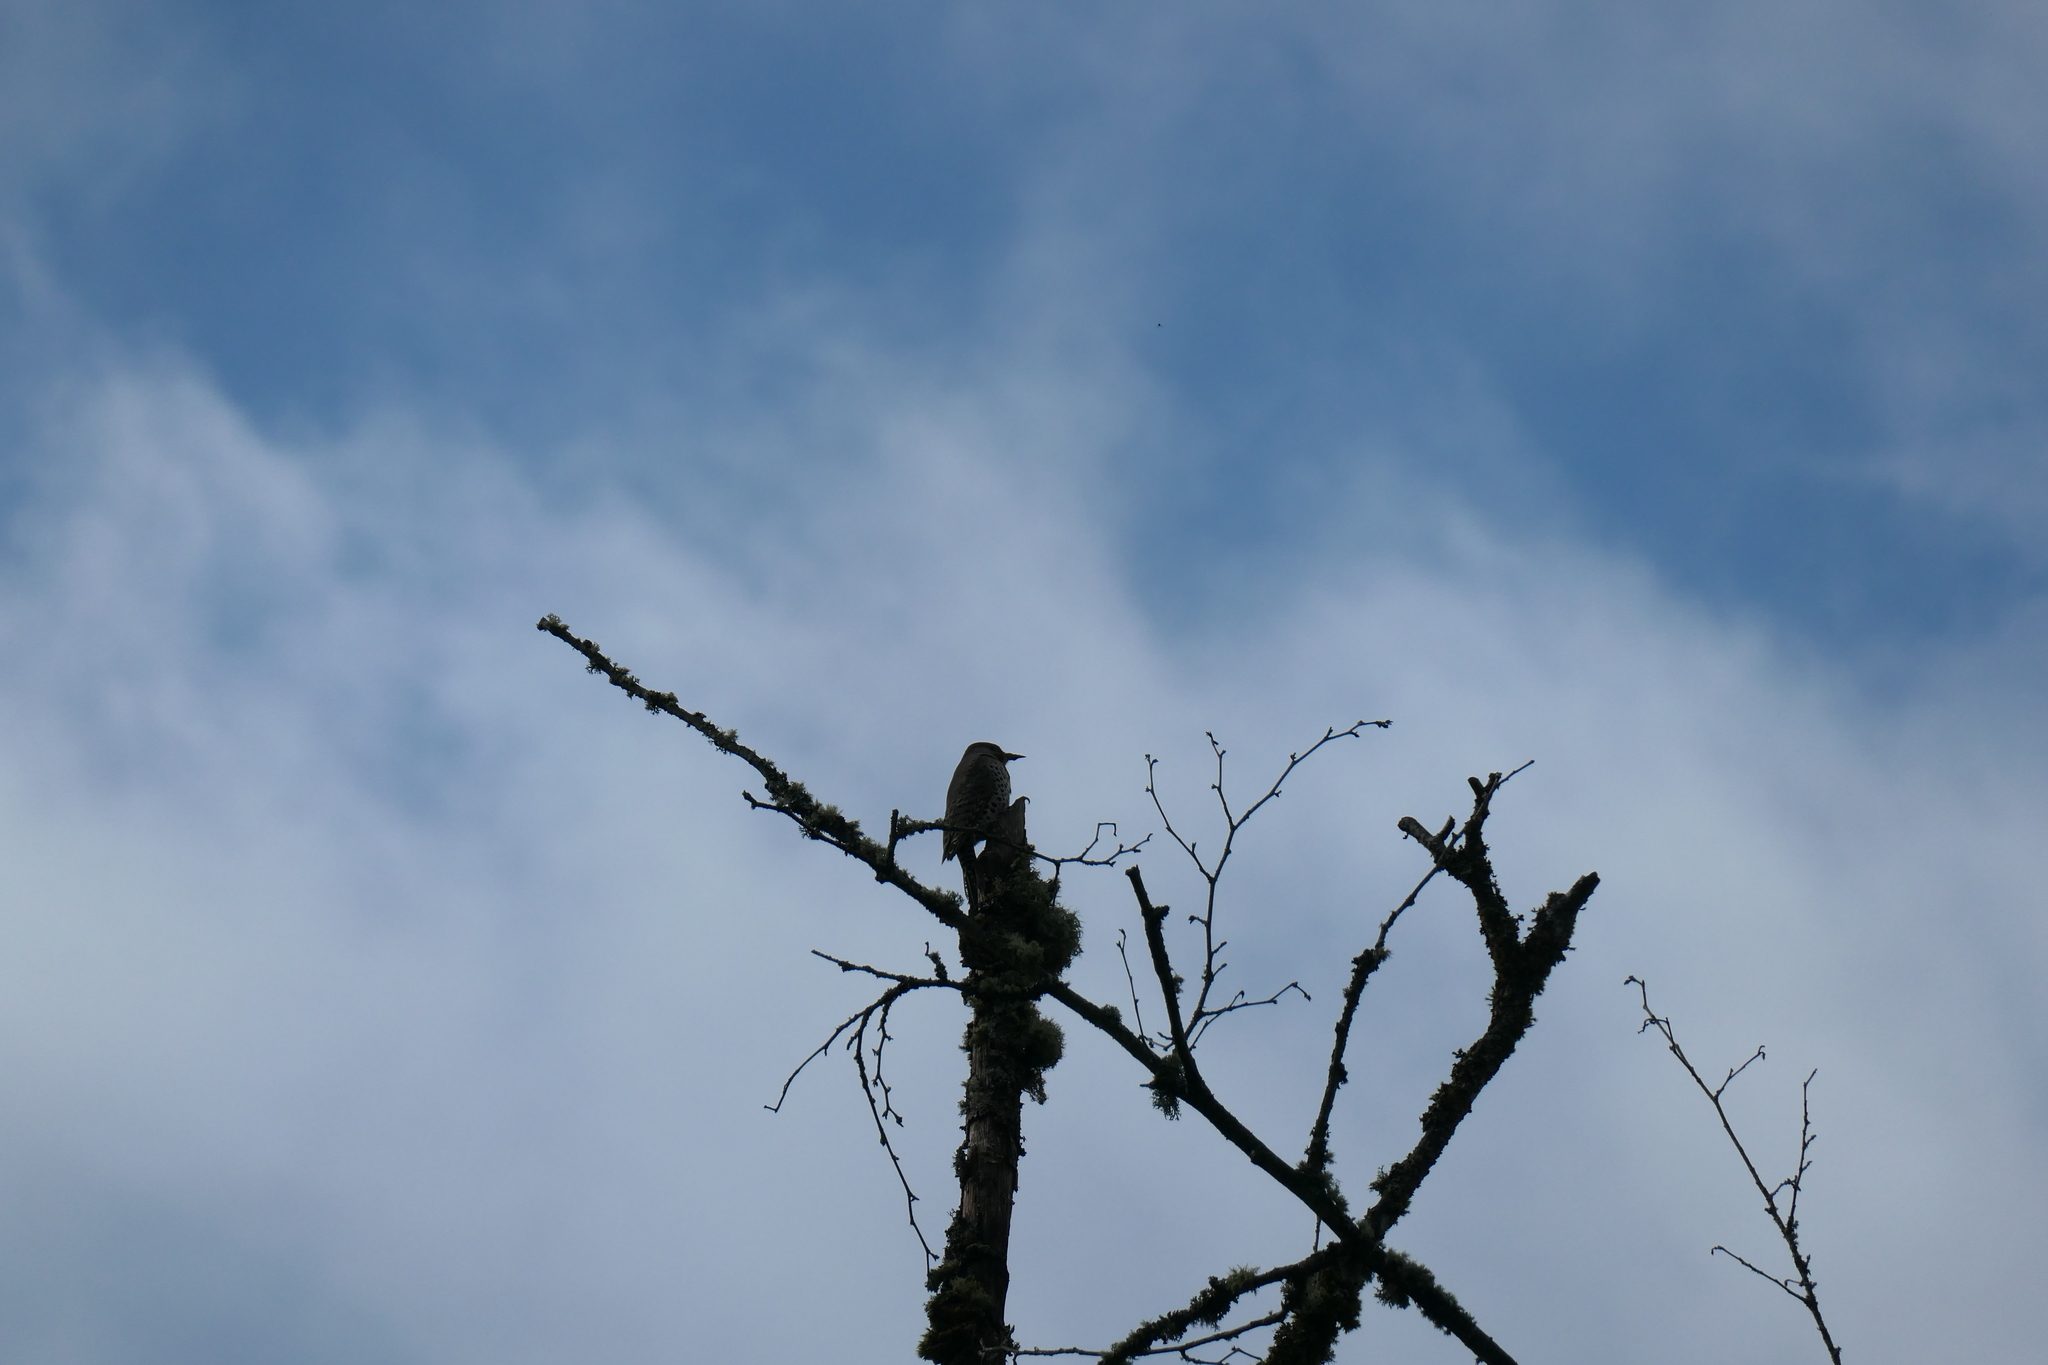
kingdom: Animalia
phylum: Chordata
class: Aves
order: Piciformes
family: Picidae
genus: Colaptes
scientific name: Colaptes auratus
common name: Northern flicker
